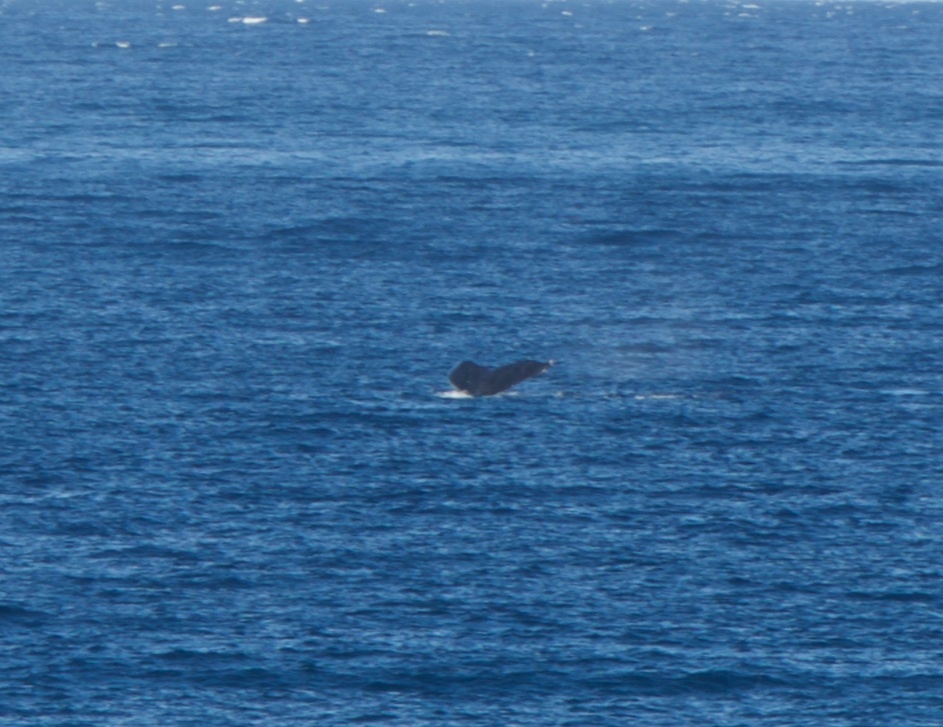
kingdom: Animalia
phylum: Chordata
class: Mammalia
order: Cetacea
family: Balaenopteridae
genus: Megaptera
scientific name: Megaptera novaeangliae
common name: Humpback whale
